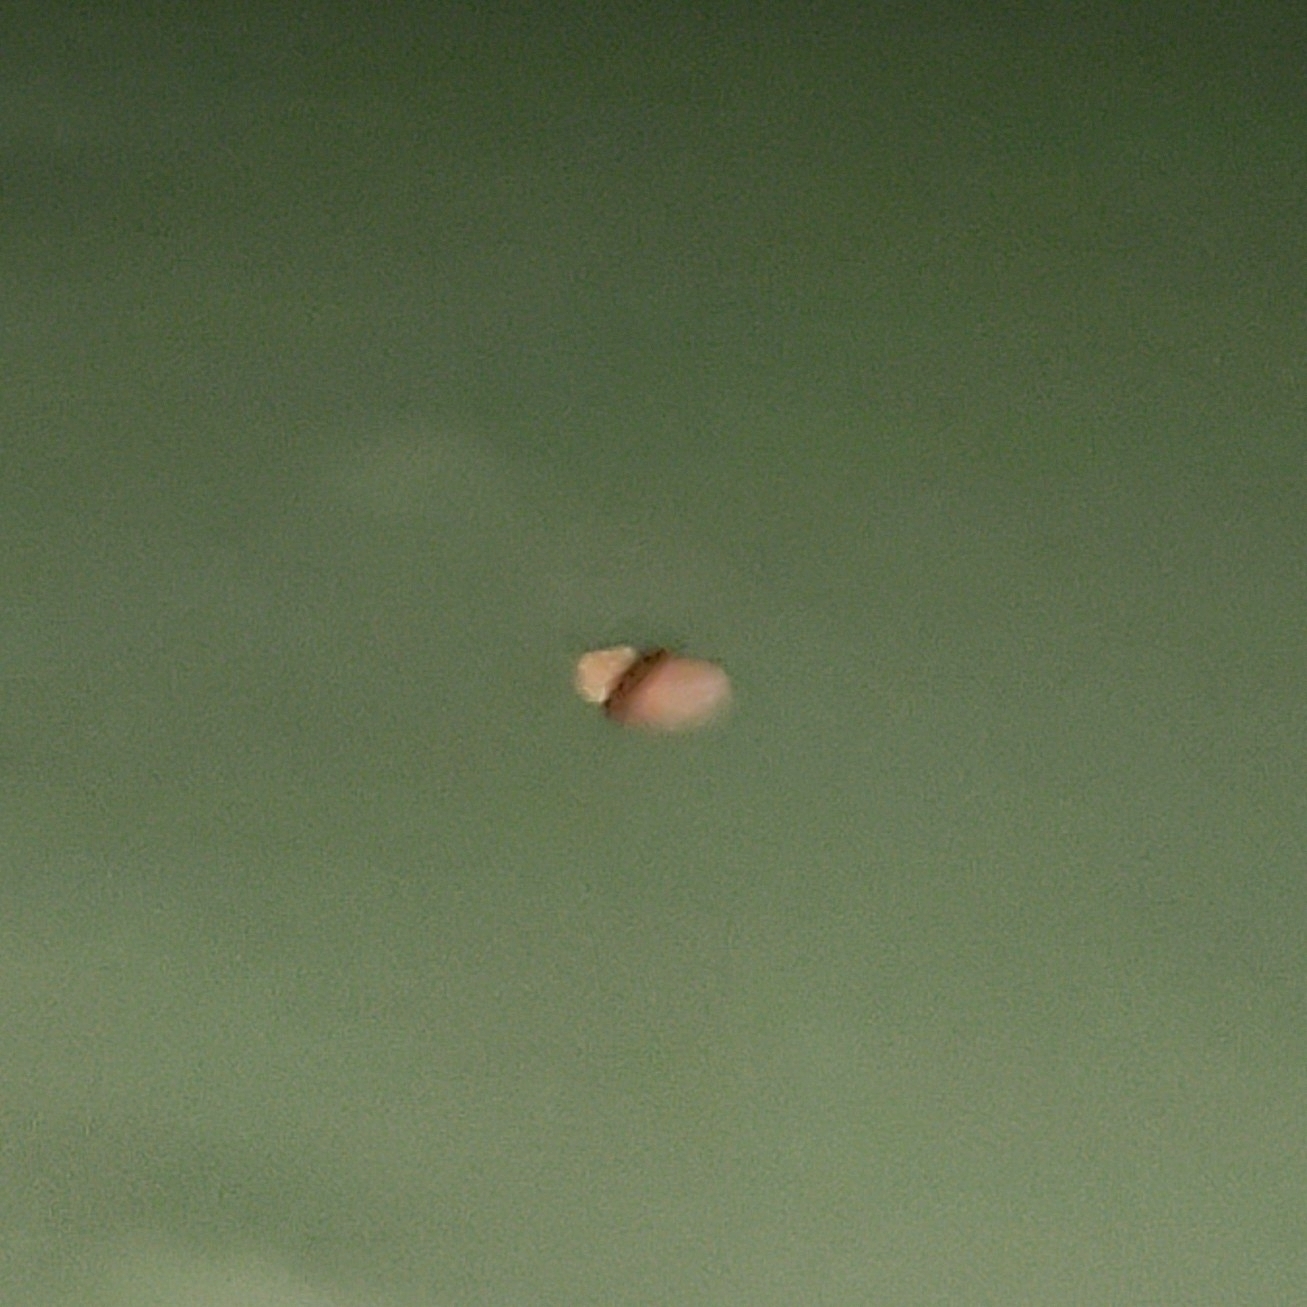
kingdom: Animalia
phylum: Cnidaria
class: Scyphozoa
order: Rhizostomeae
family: Stomolophidae
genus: Stomolophus
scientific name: Stomolophus meleagris
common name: Cabbagehead
